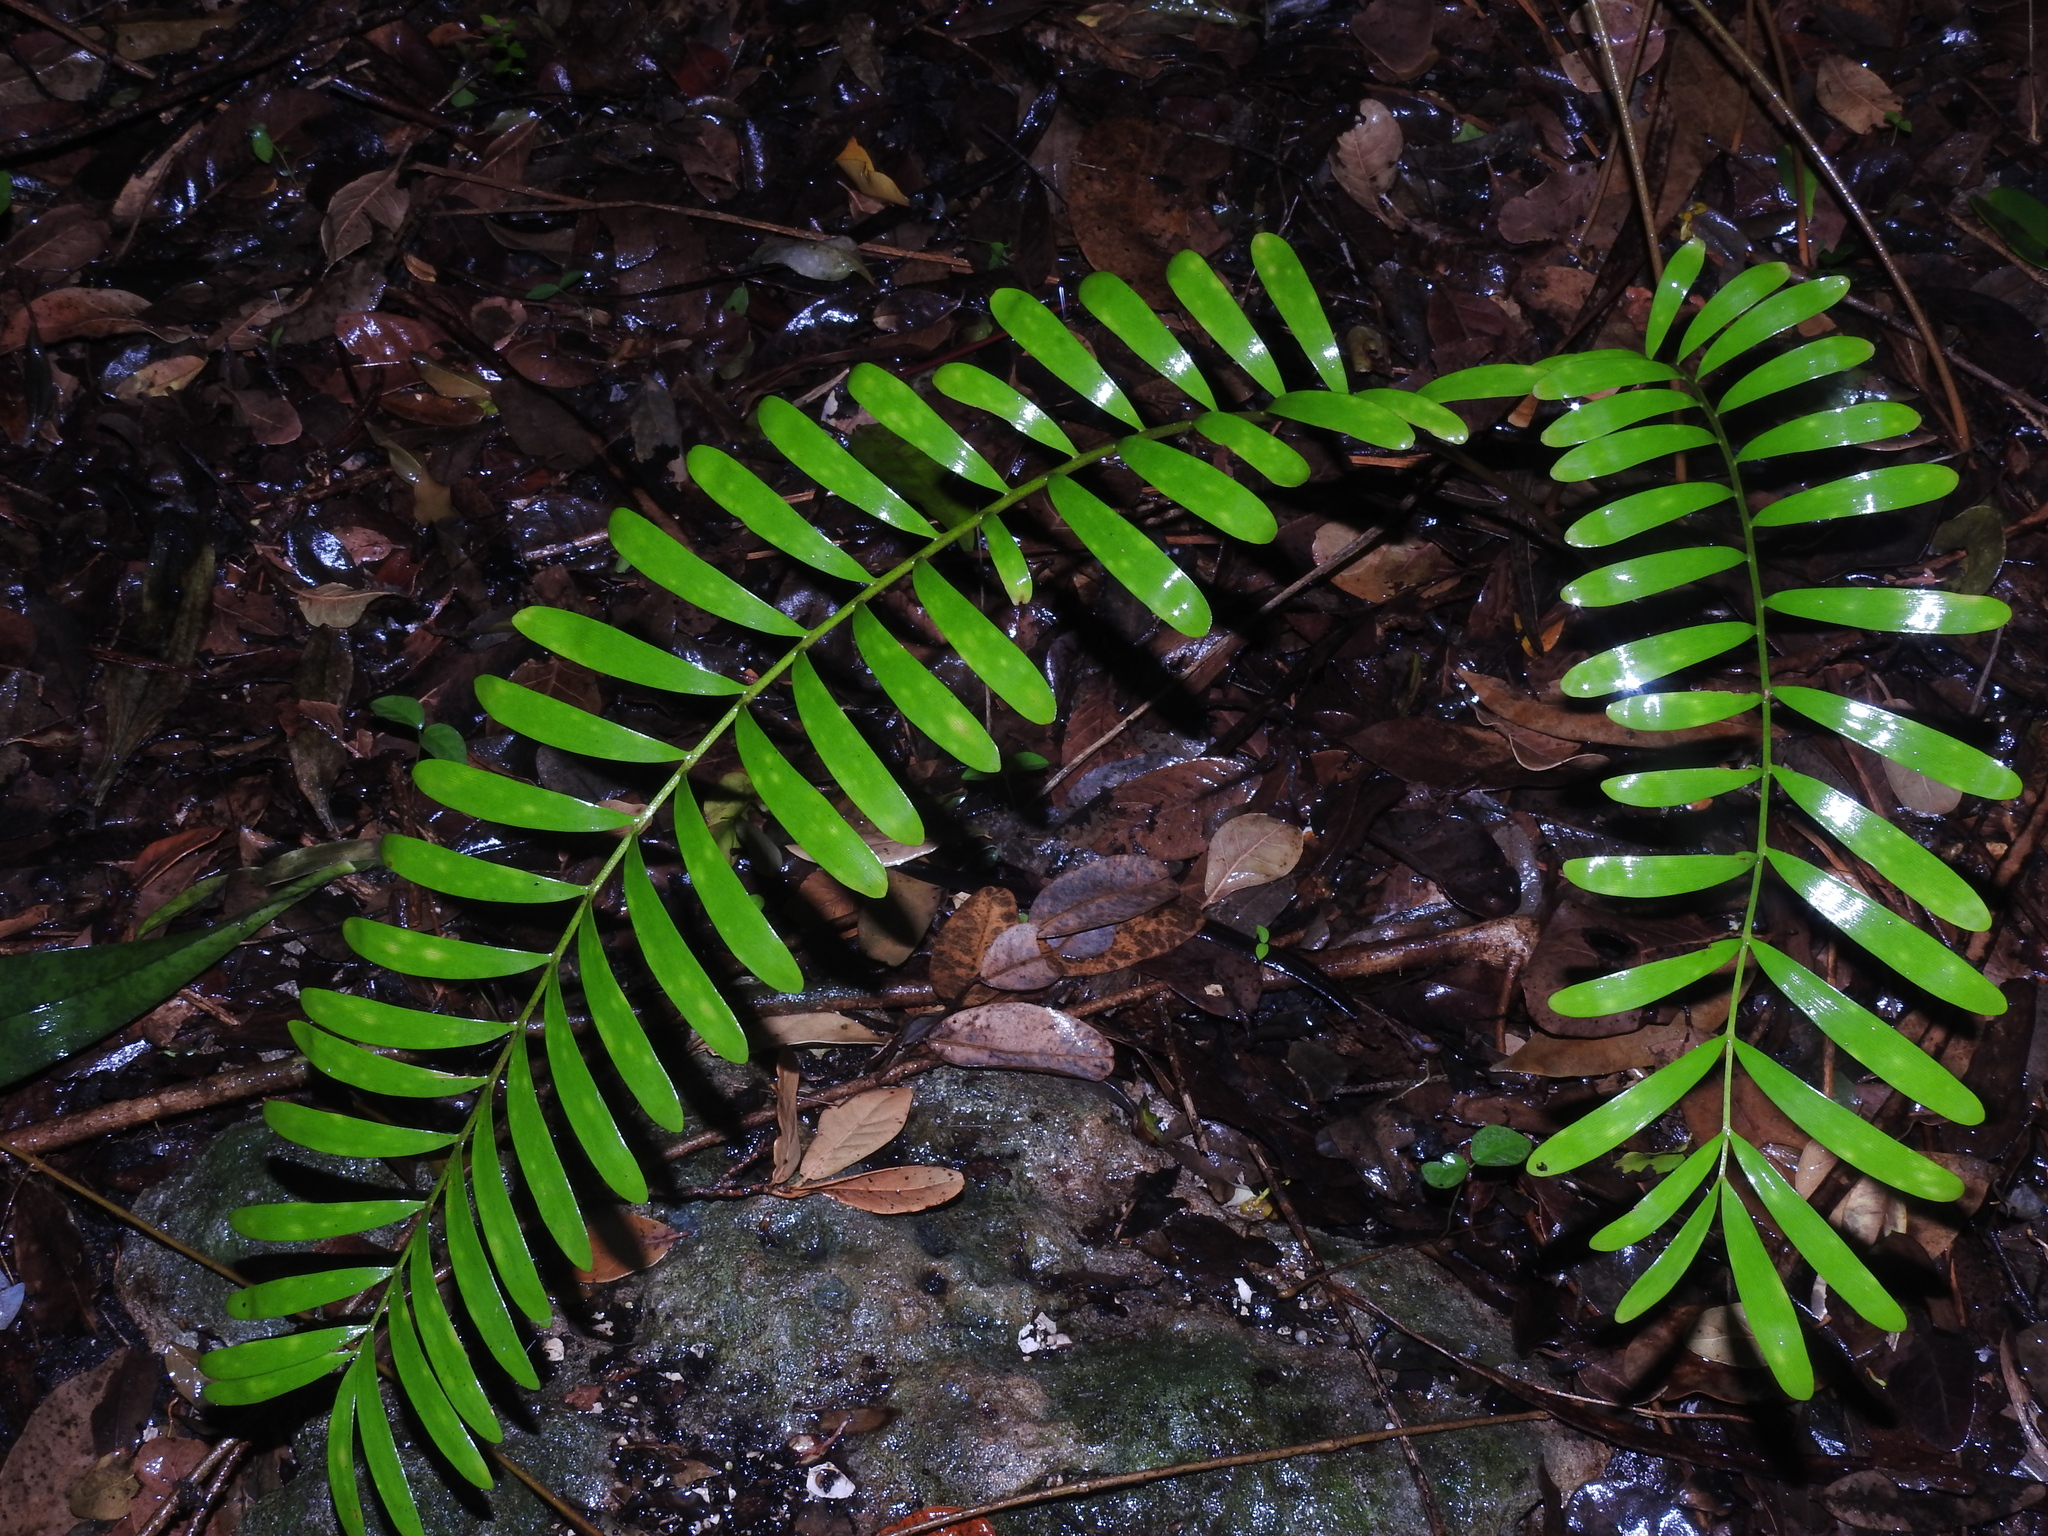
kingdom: Plantae
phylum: Tracheophyta
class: Cycadopsida
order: Cycadales
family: Zamiaceae
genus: Zamia
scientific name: Zamia integrifolia
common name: Florida arrowroot
